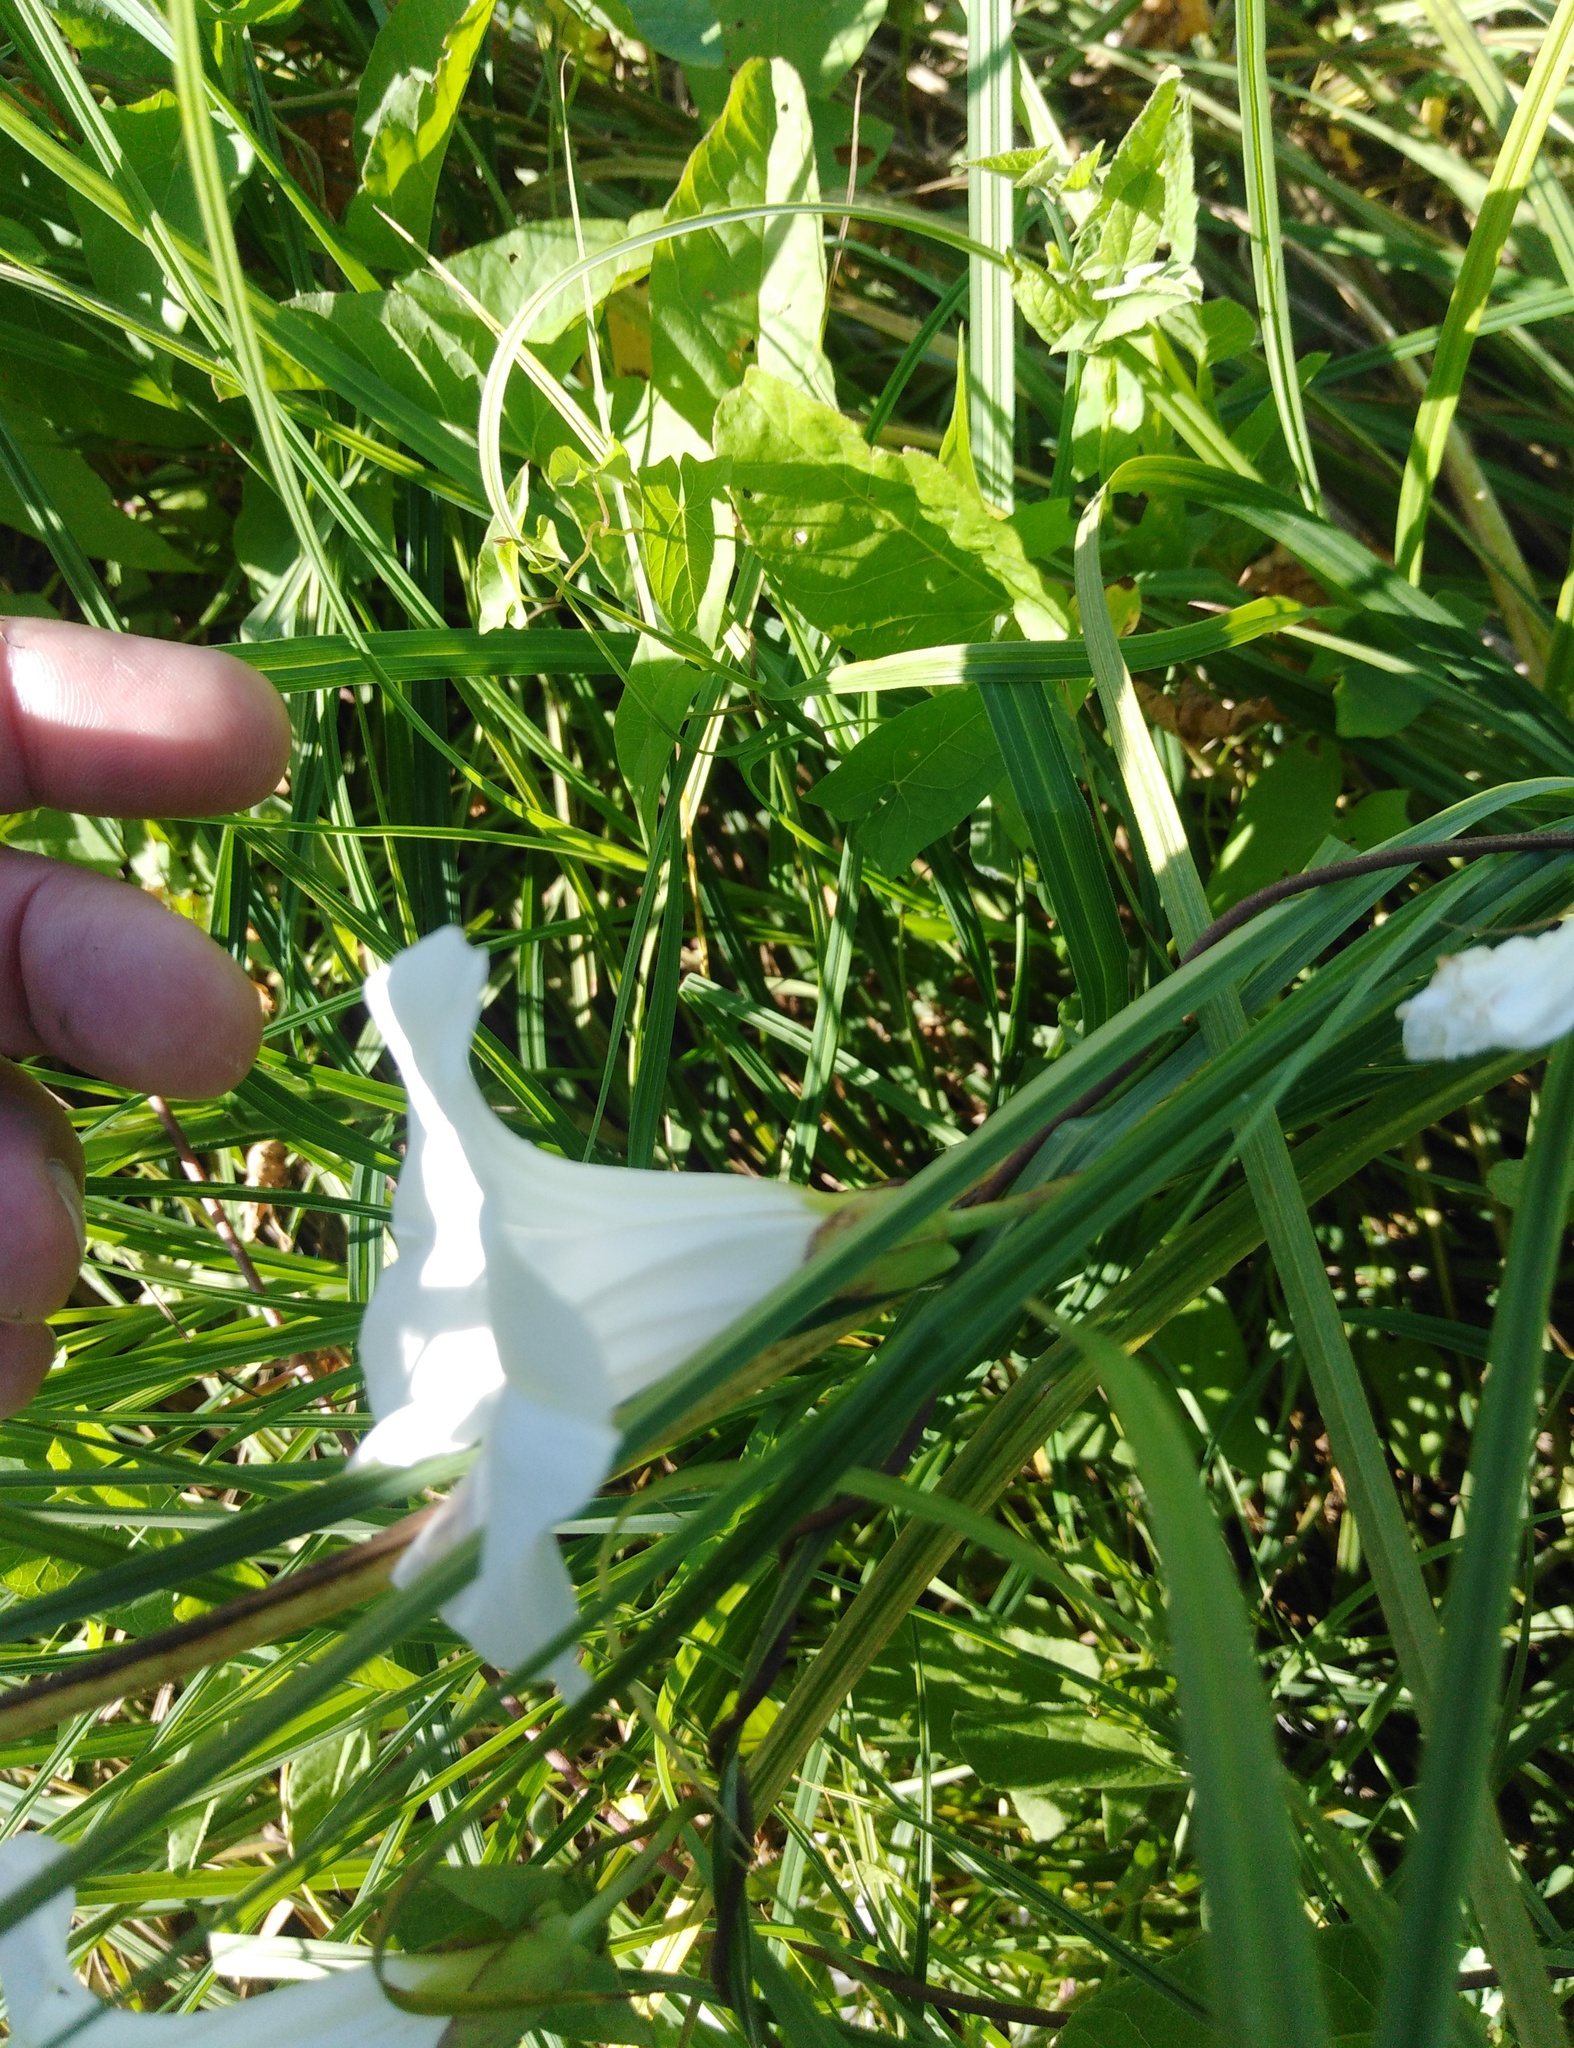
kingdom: Plantae
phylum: Tracheophyta
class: Magnoliopsida
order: Solanales
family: Convolvulaceae
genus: Calystegia
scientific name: Calystegia sepium
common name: Hedge bindweed
